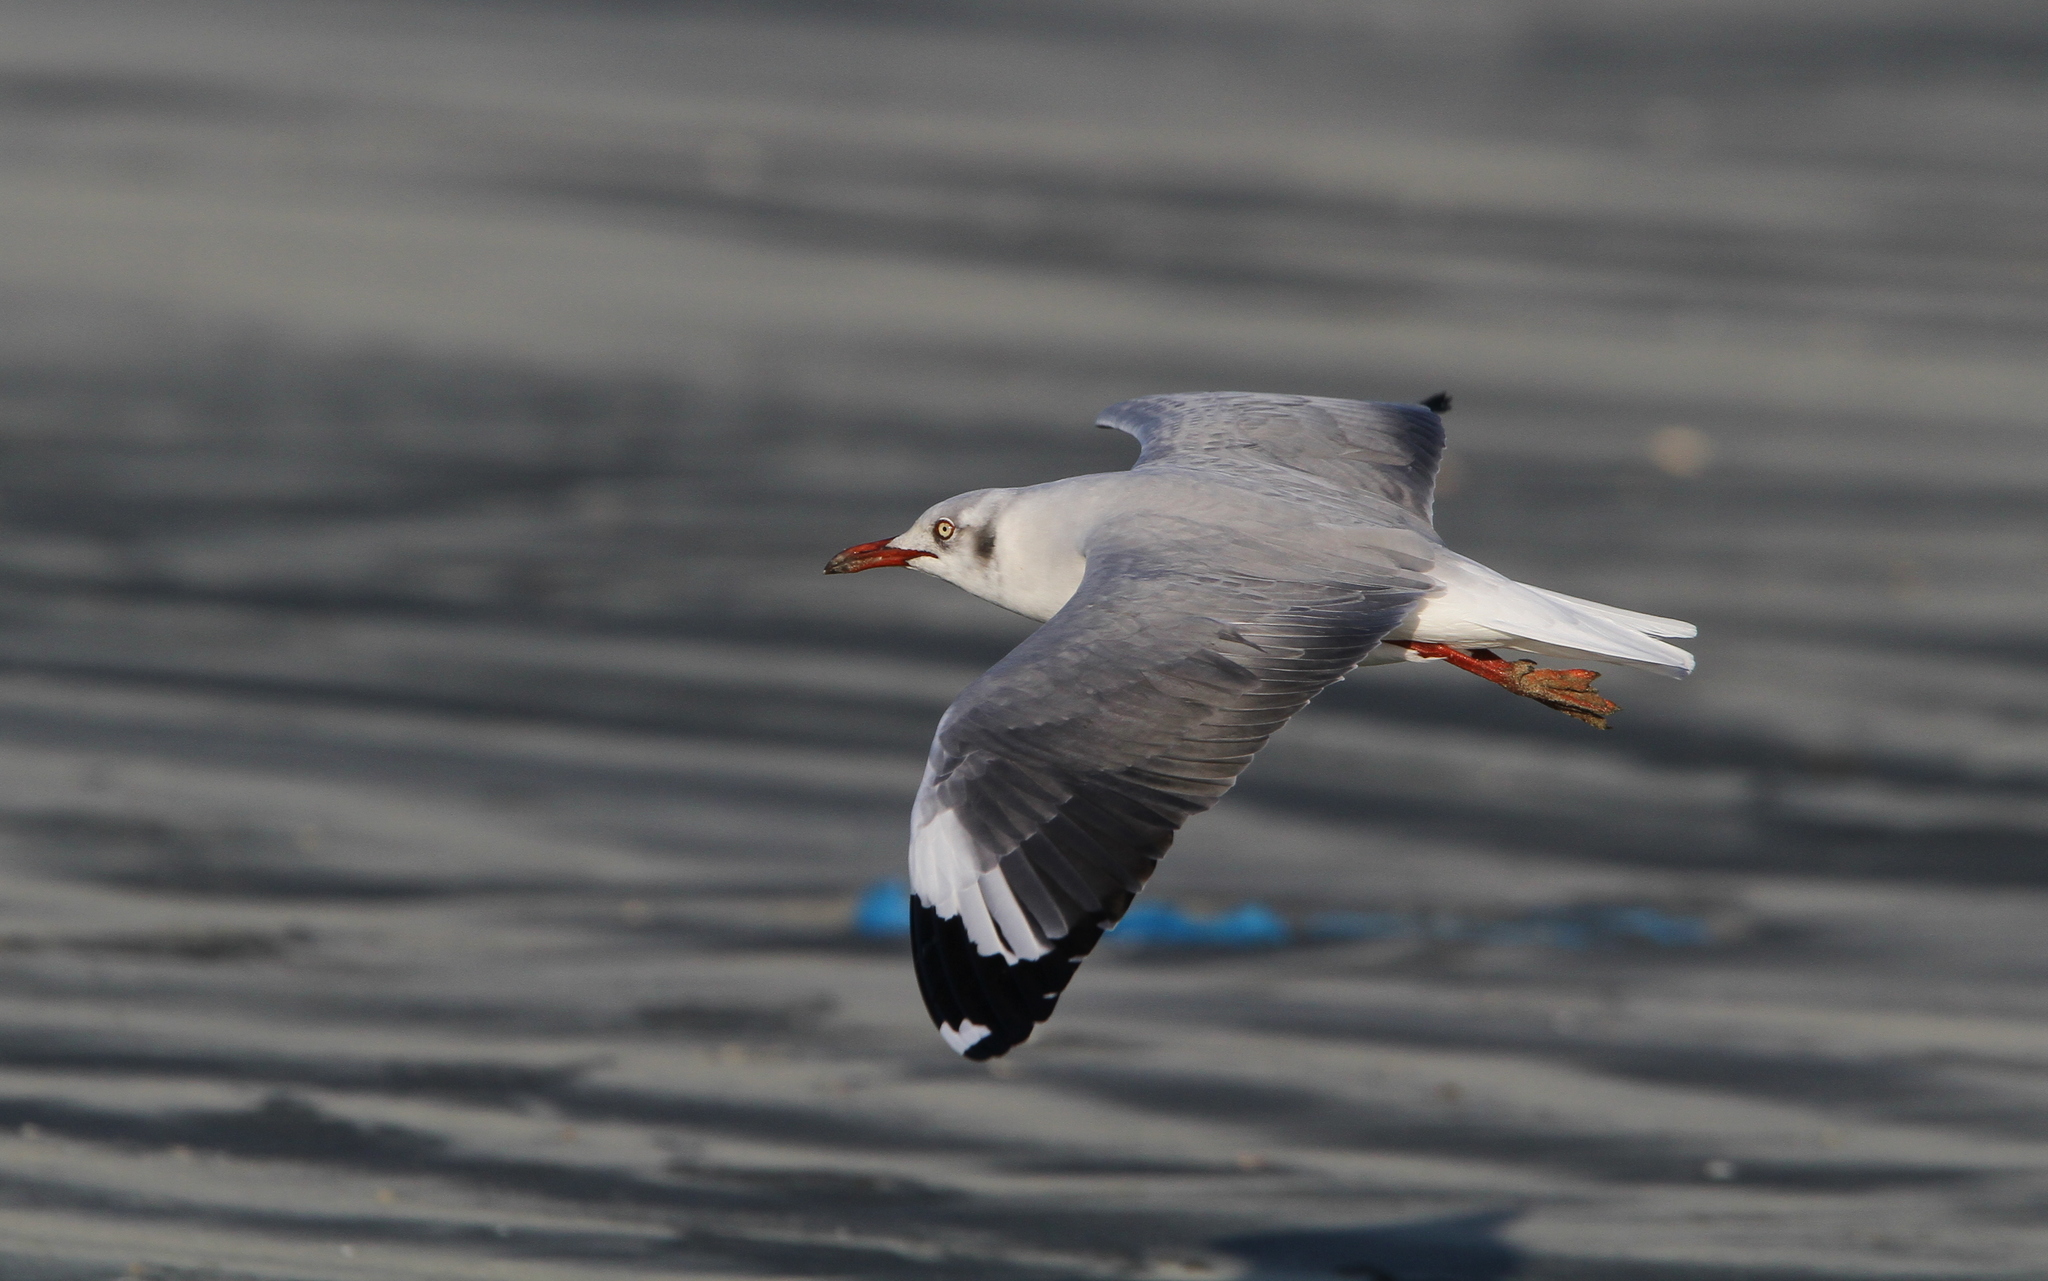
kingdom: Animalia
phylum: Chordata
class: Aves
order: Charadriiformes
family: Laridae
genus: Chroicocephalus
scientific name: Chroicocephalus cirrocephalus
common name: Grey-headed gull
